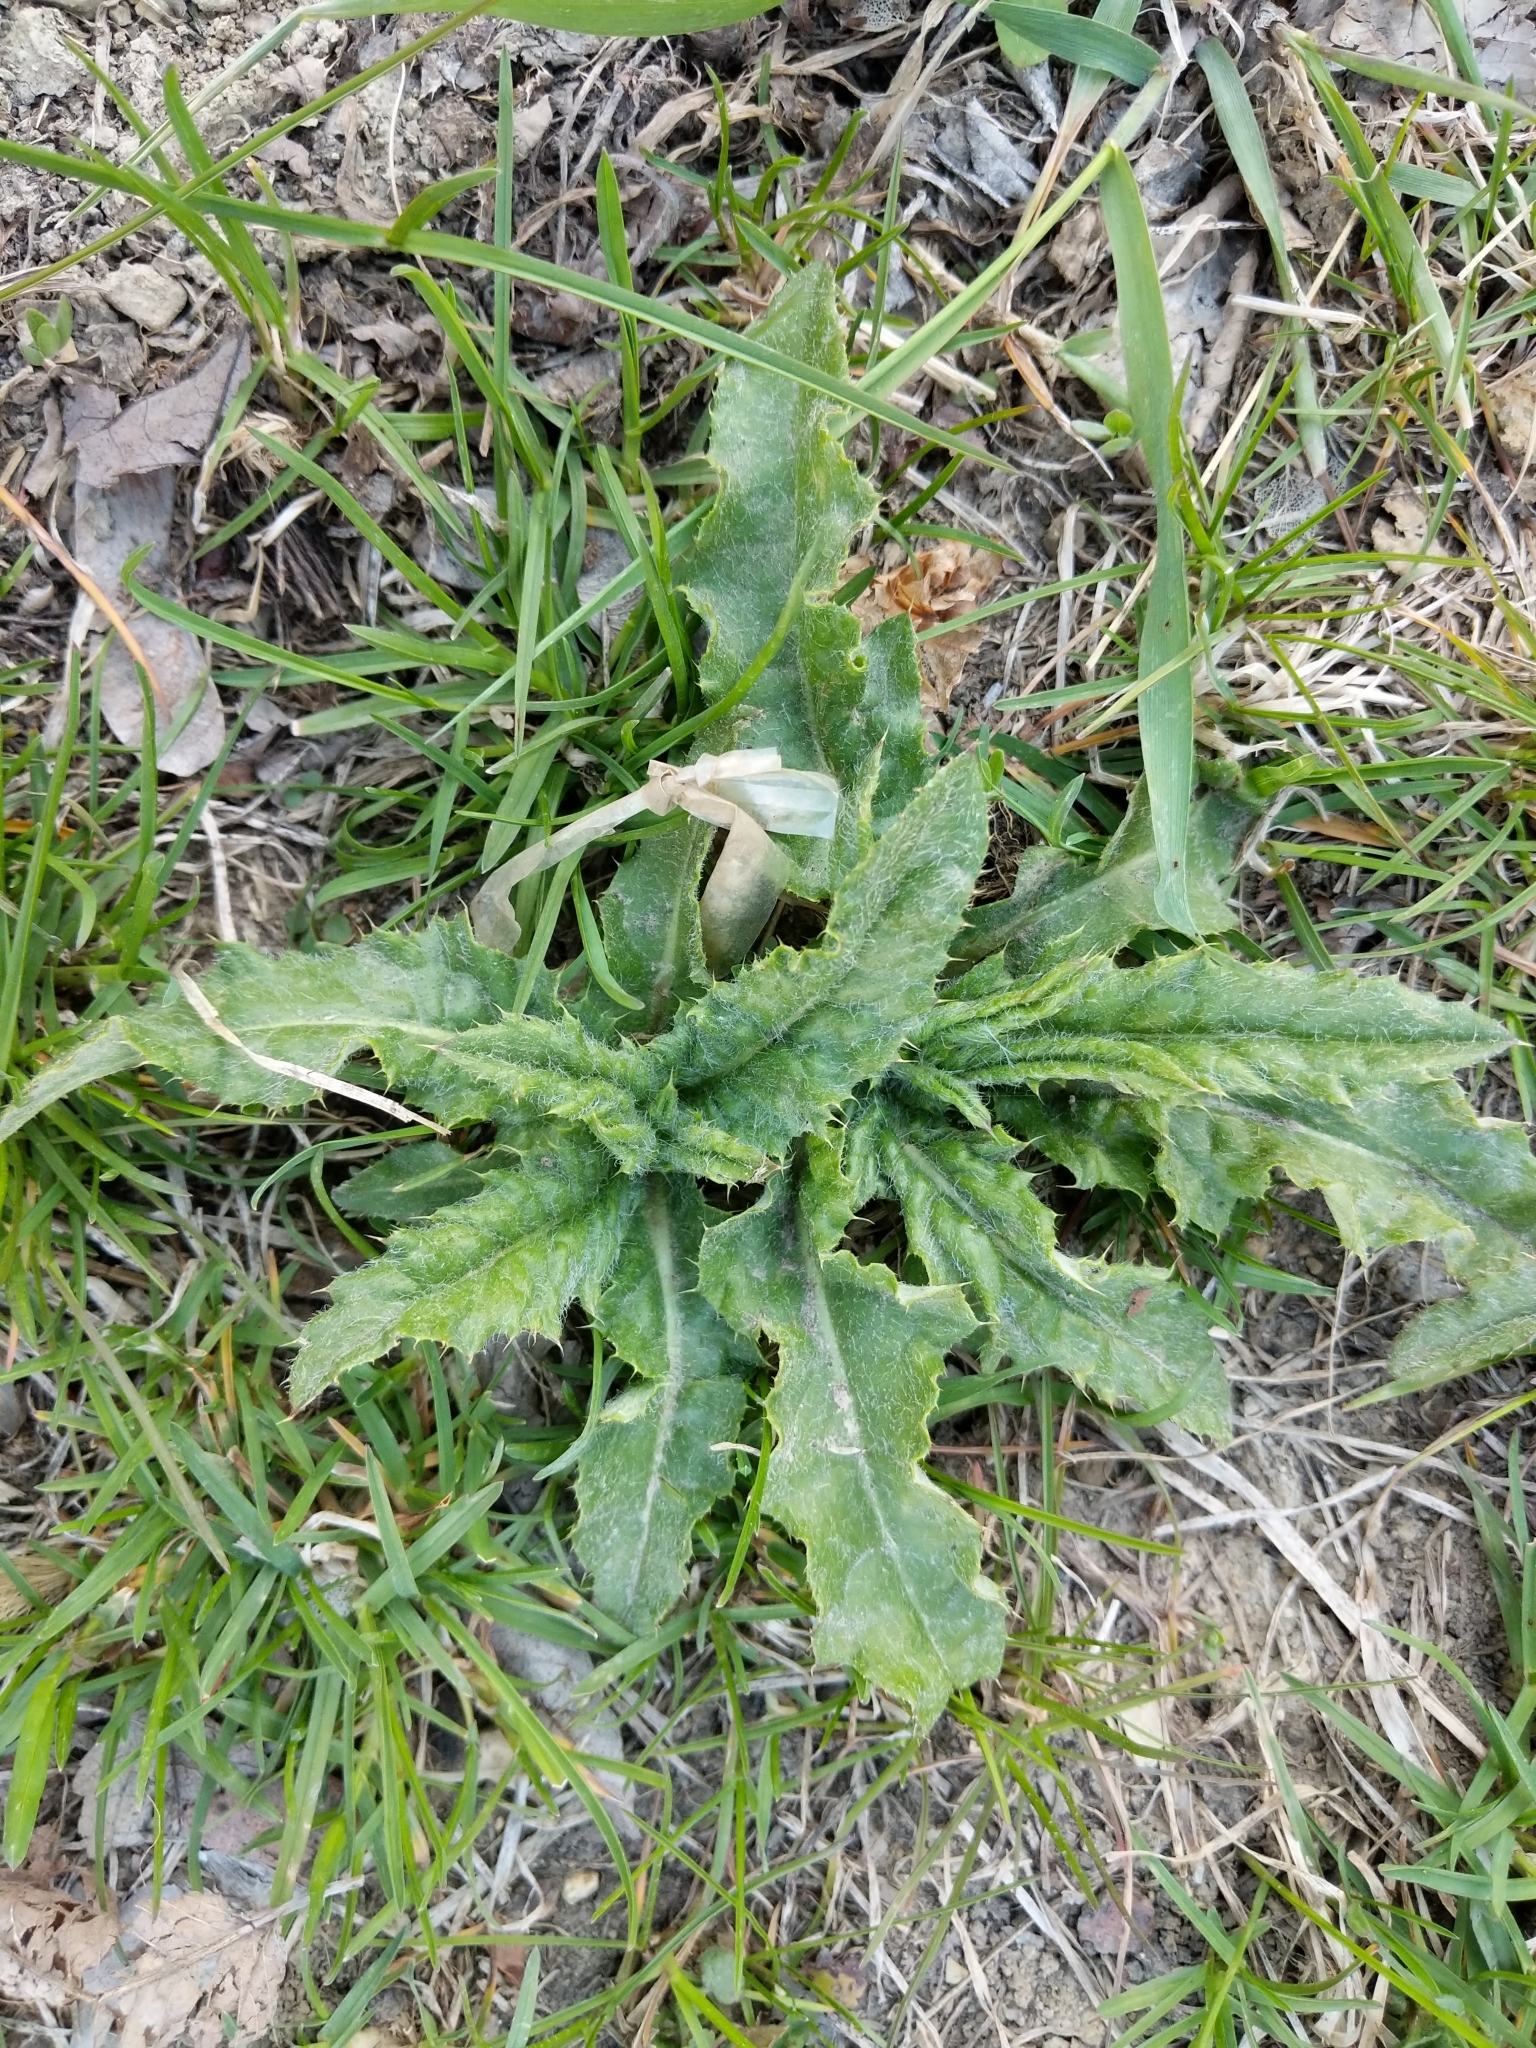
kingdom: Plantae
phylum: Tracheophyta
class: Magnoliopsida
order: Asterales
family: Asteraceae
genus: Cirsium
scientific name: Cirsium arvense
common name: Creeping thistle
